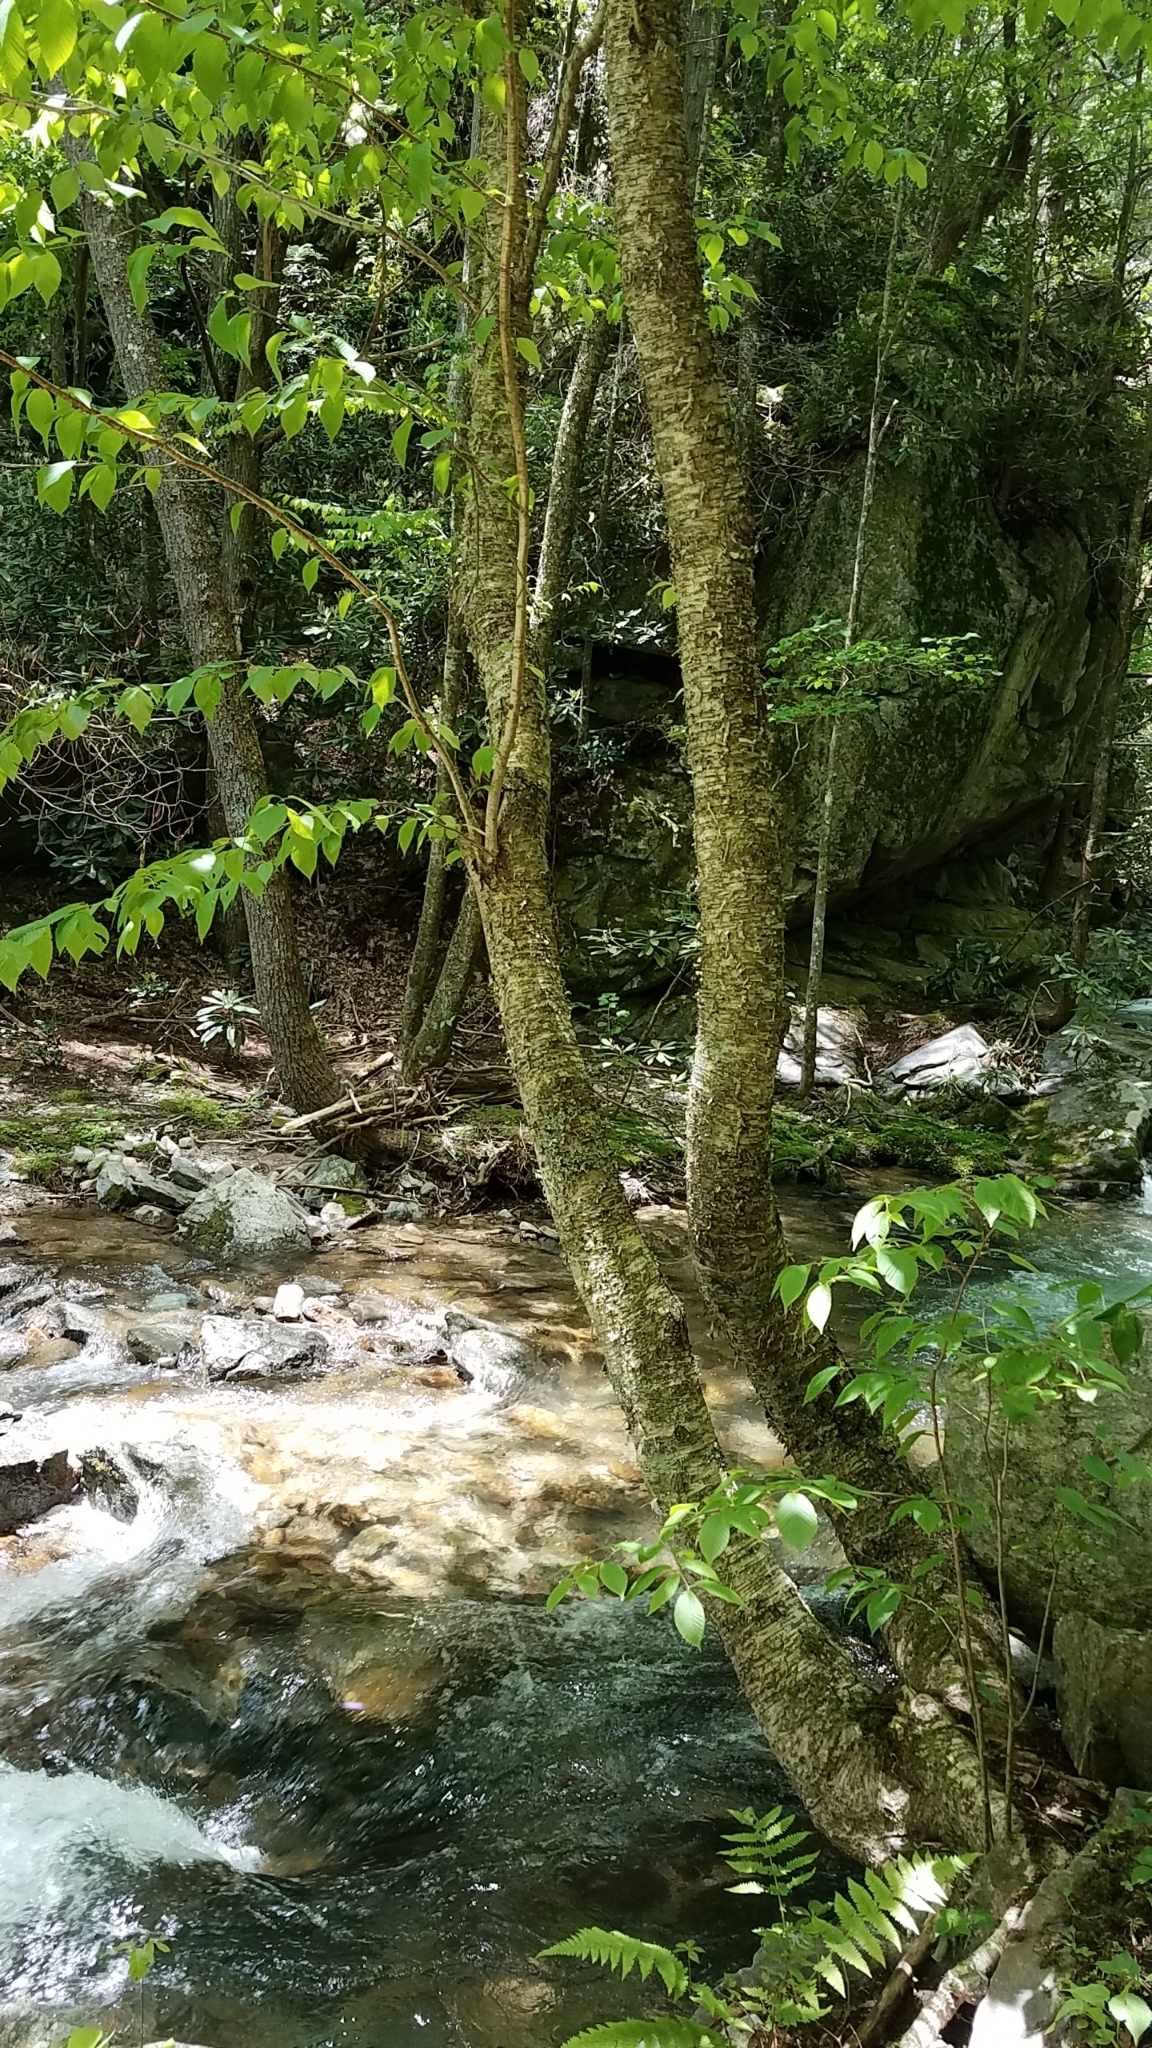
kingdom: Plantae
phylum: Tracheophyta
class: Magnoliopsida
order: Fagales
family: Betulaceae
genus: Betula
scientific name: Betula alleghaniensis
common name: Yellow birch
